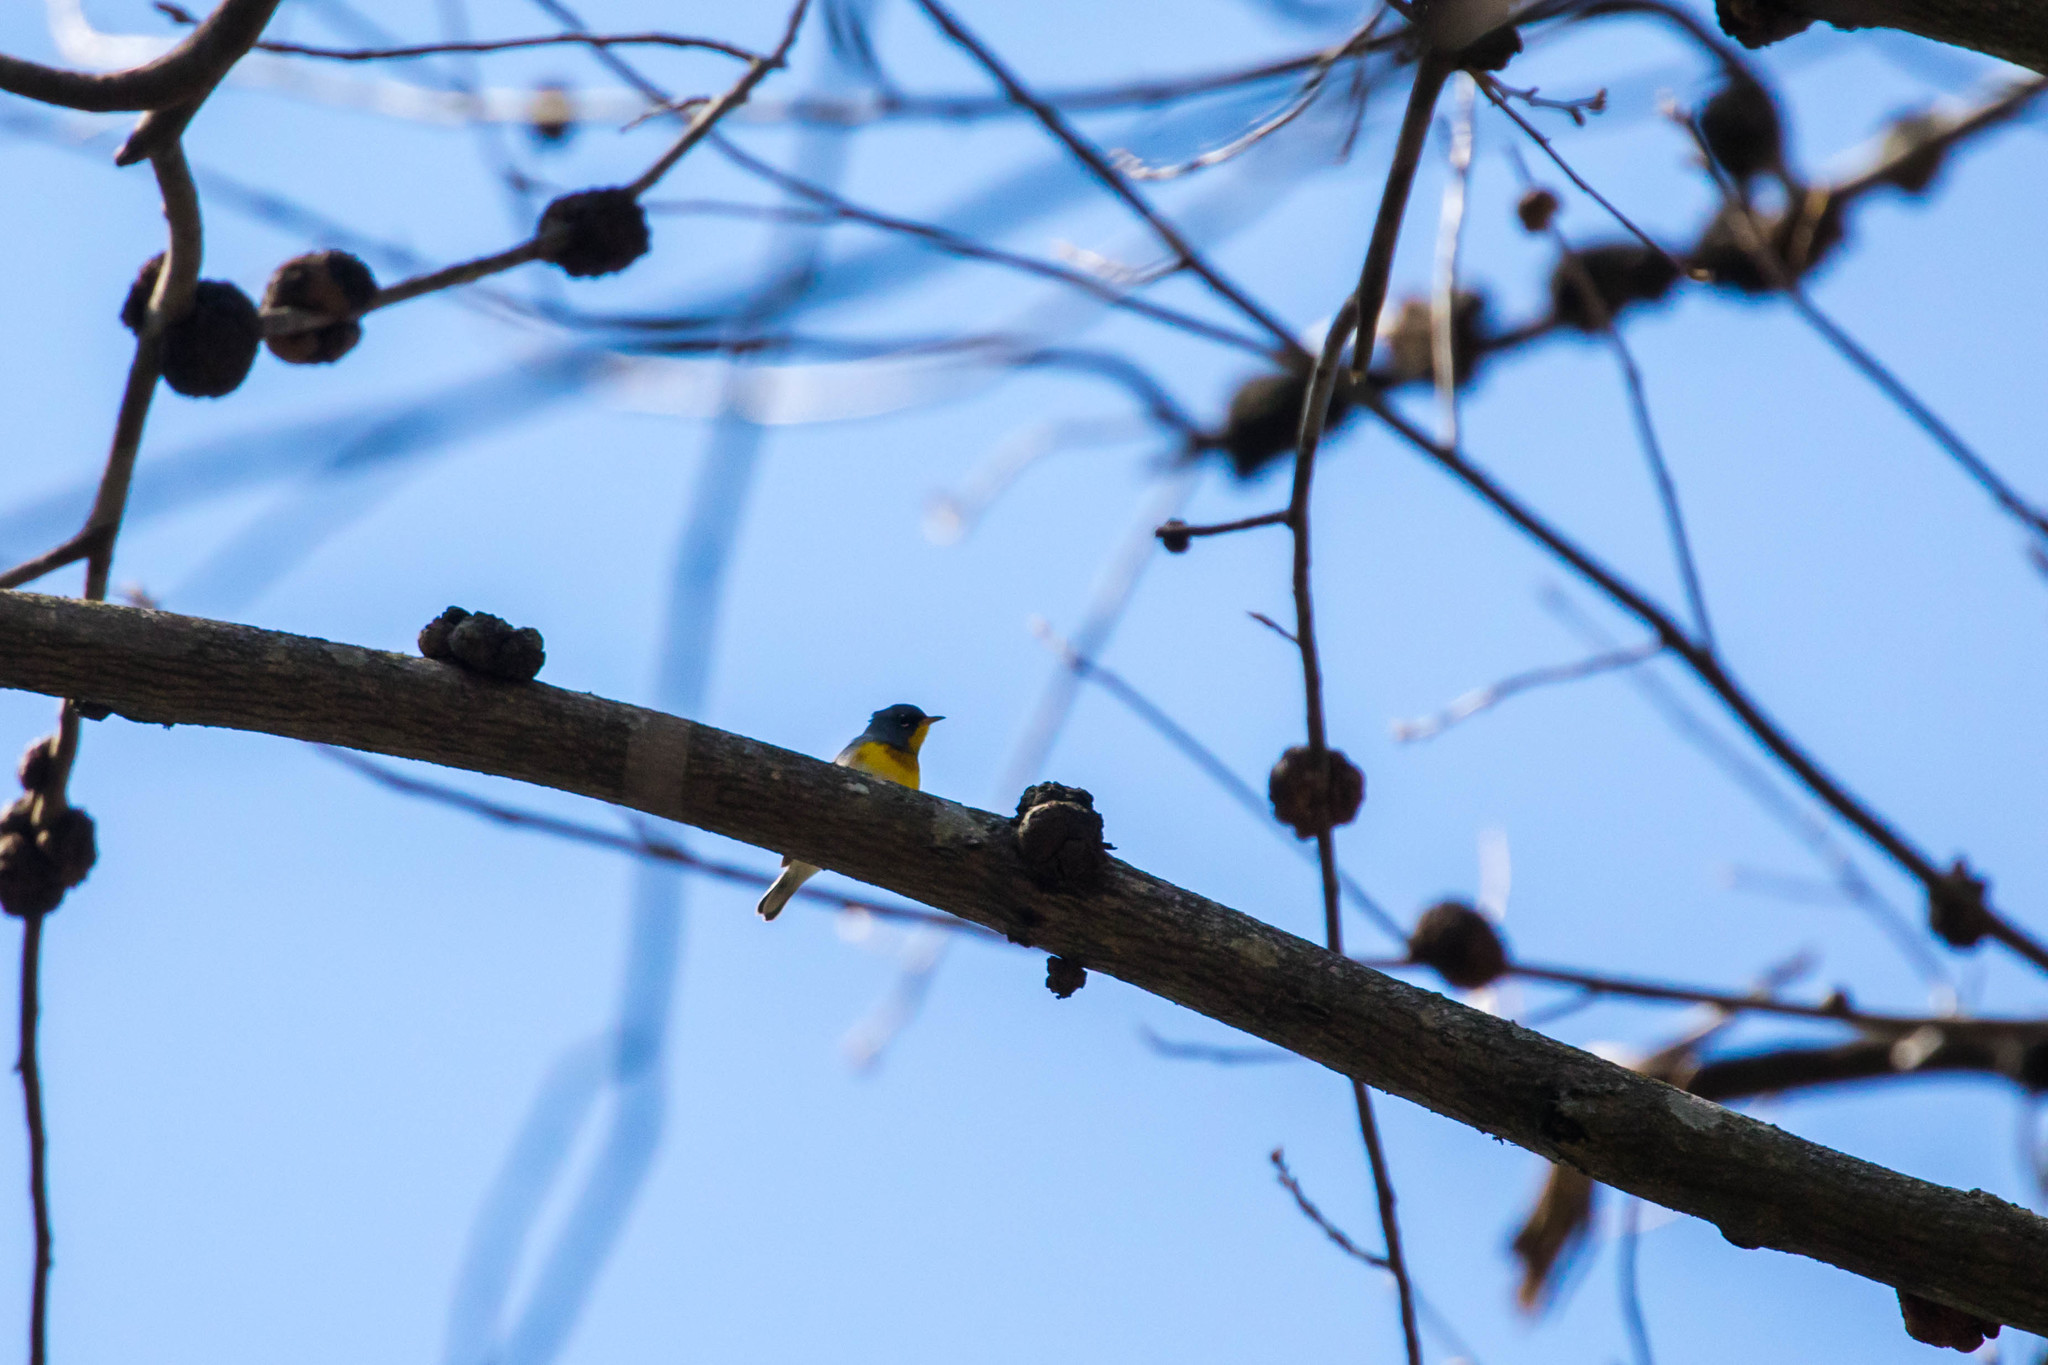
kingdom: Animalia
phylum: Chordata
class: Aves
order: Passeriformes
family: Parulidae
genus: Setophaga
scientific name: Setophaga americana
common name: Northern parula
